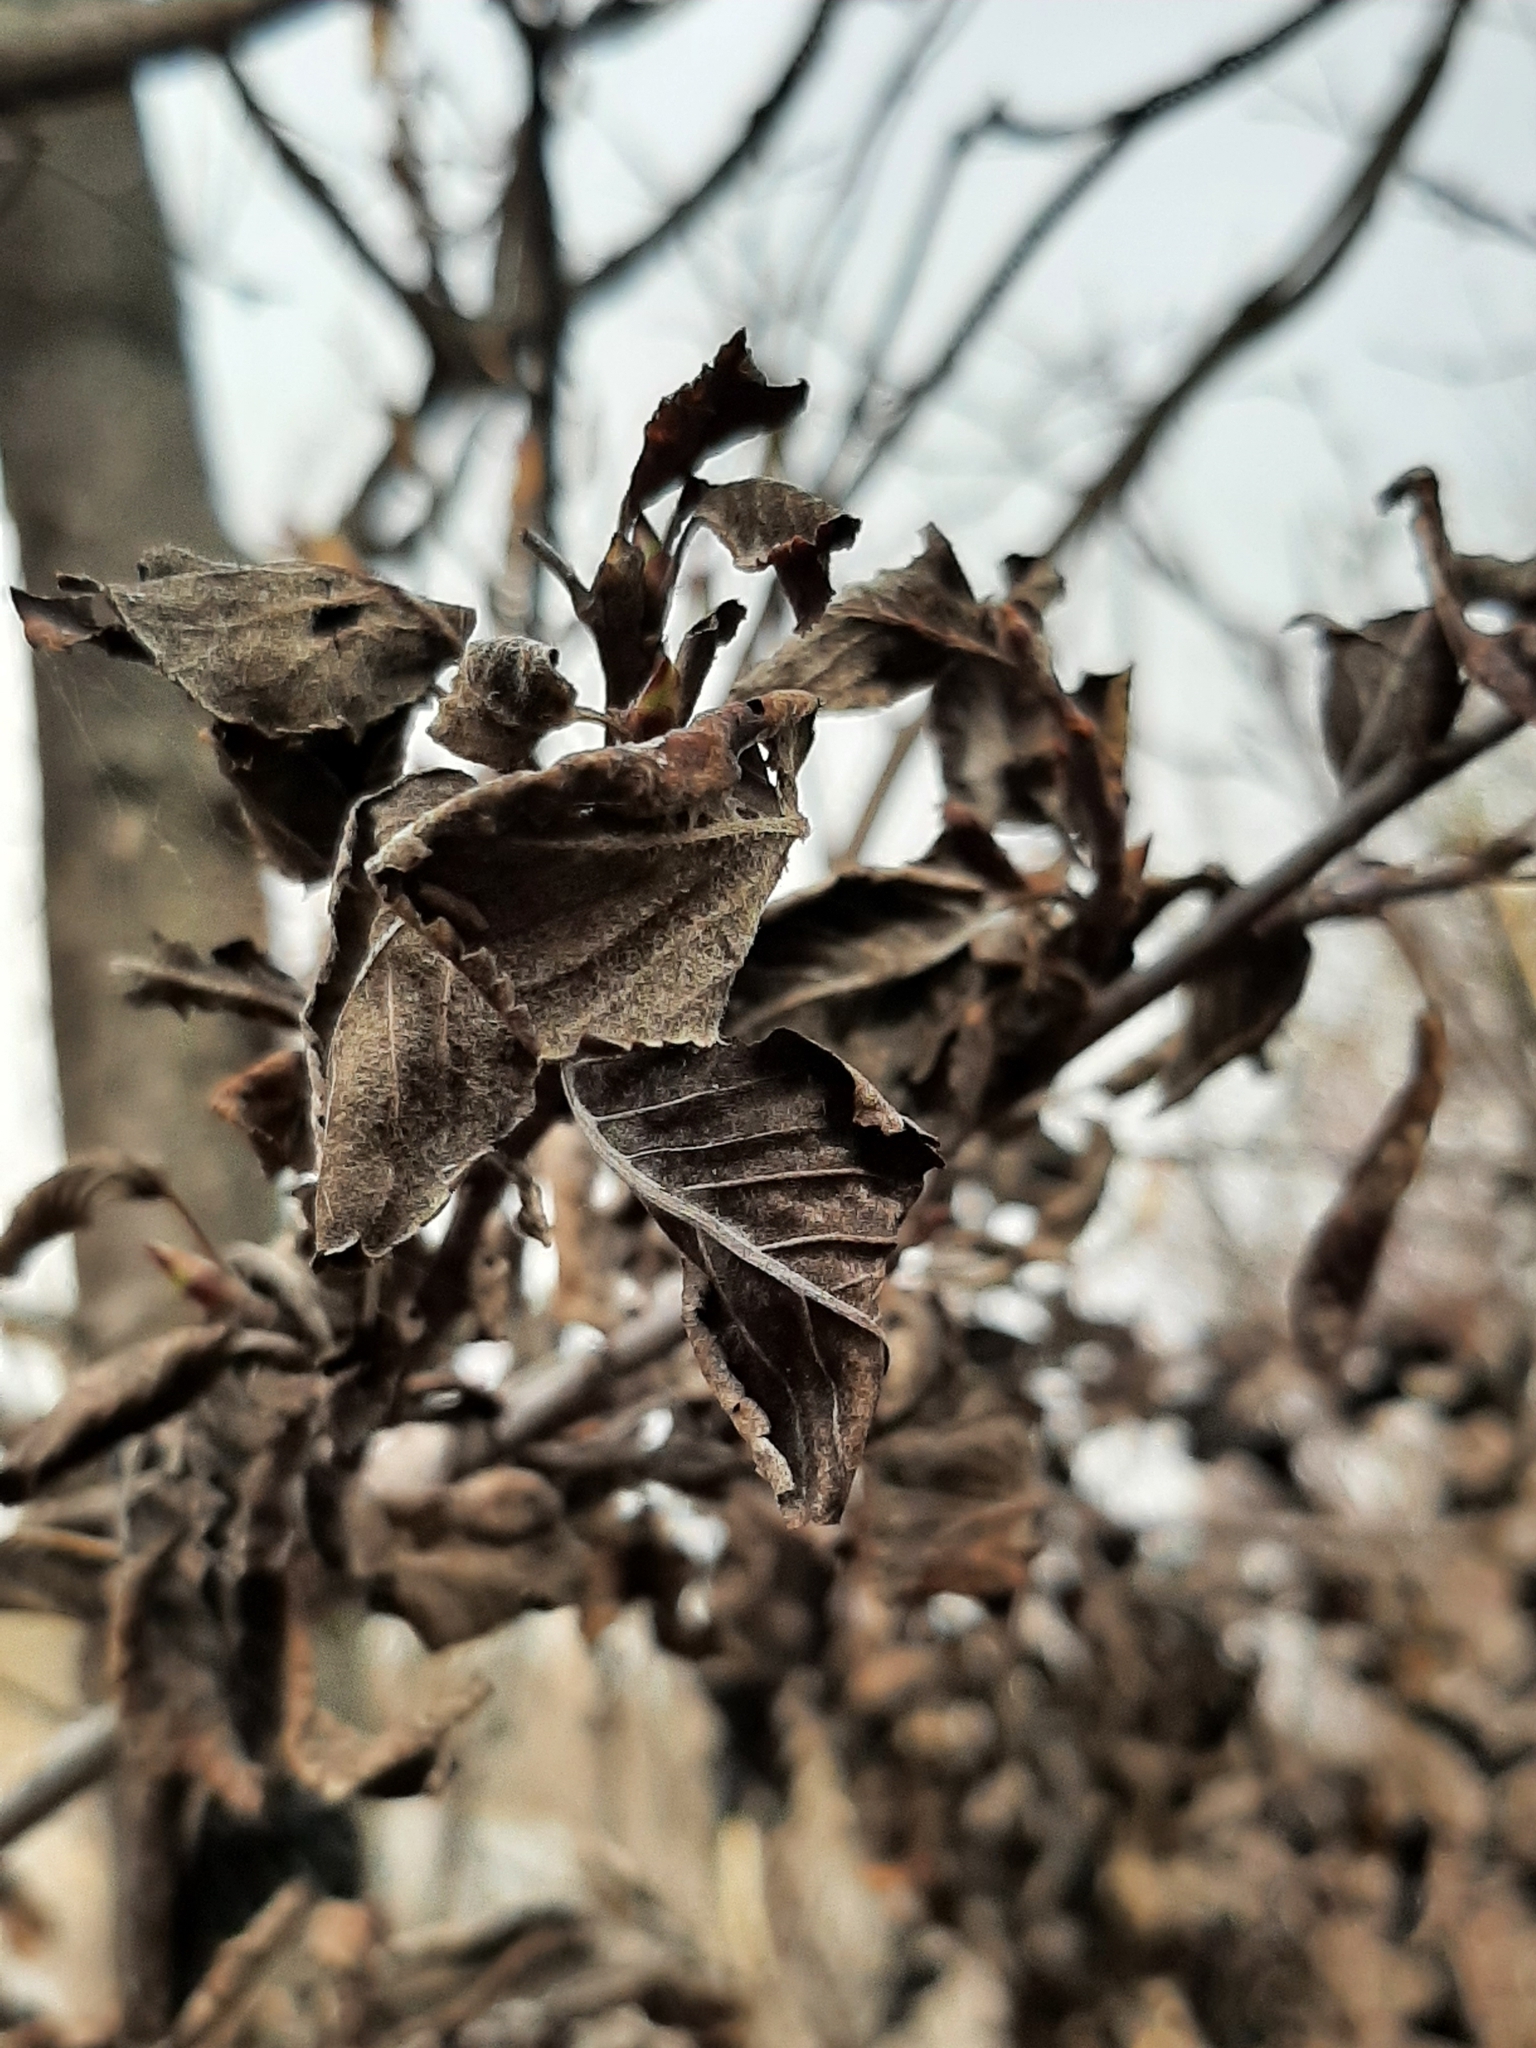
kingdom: Fungi
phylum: Ascomycota
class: Dothideomycetes
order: Venturiales
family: Venturiaceae
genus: Apiosporina
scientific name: Apiosporina collinsii
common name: Black leaf
